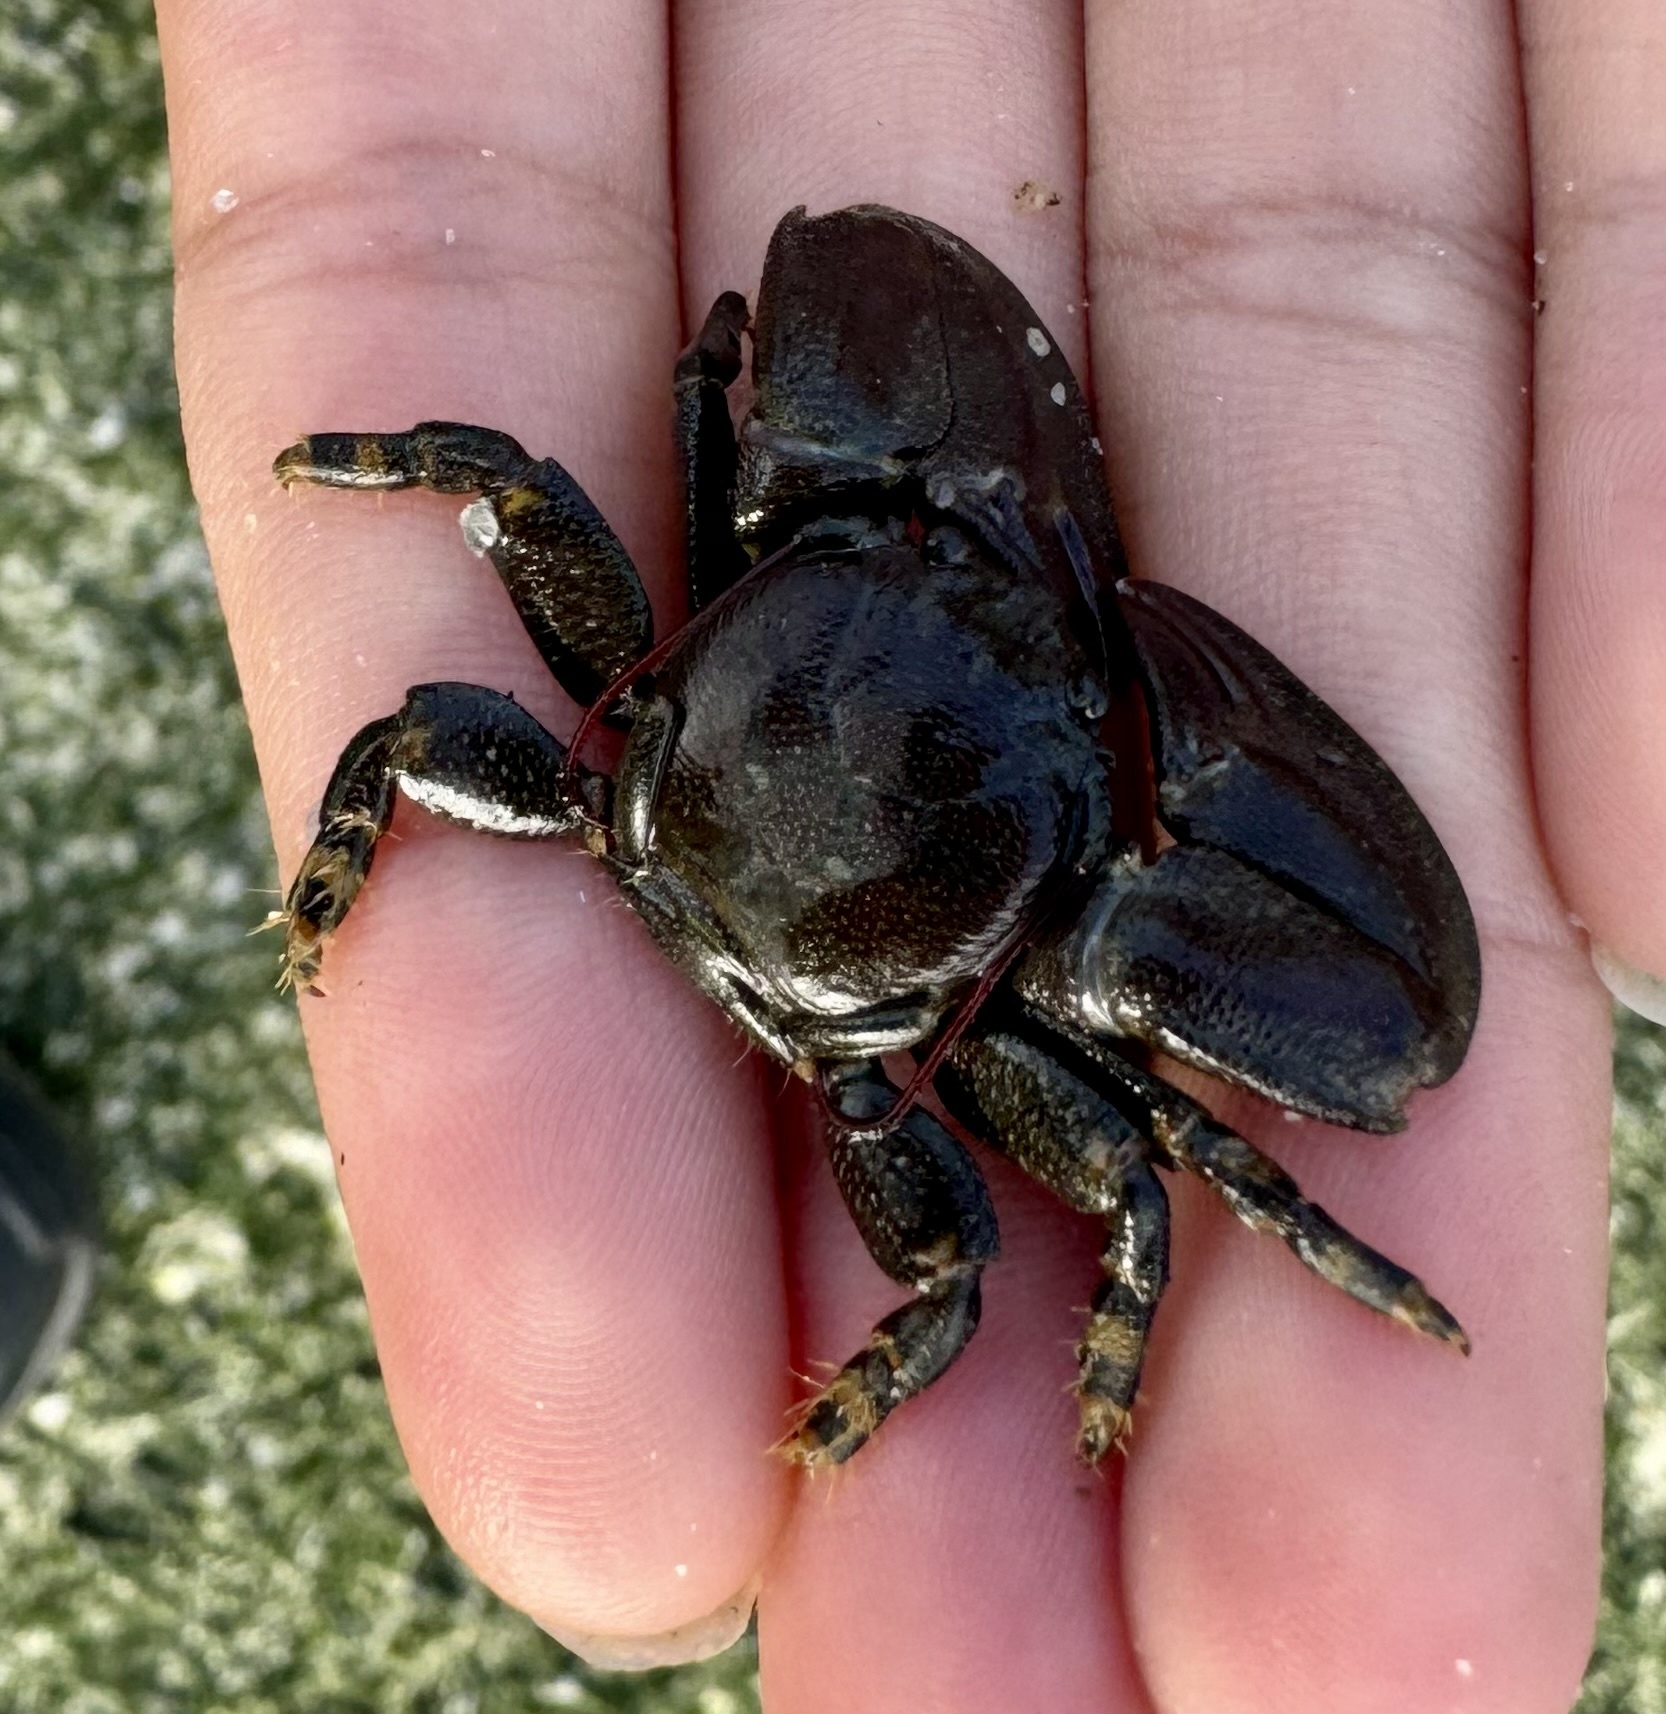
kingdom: Animalia
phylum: Arthropoda
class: Malacostraca
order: Decapoda
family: Porcellanidae
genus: Petrolisthes
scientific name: Petrolisthes cinctipes
